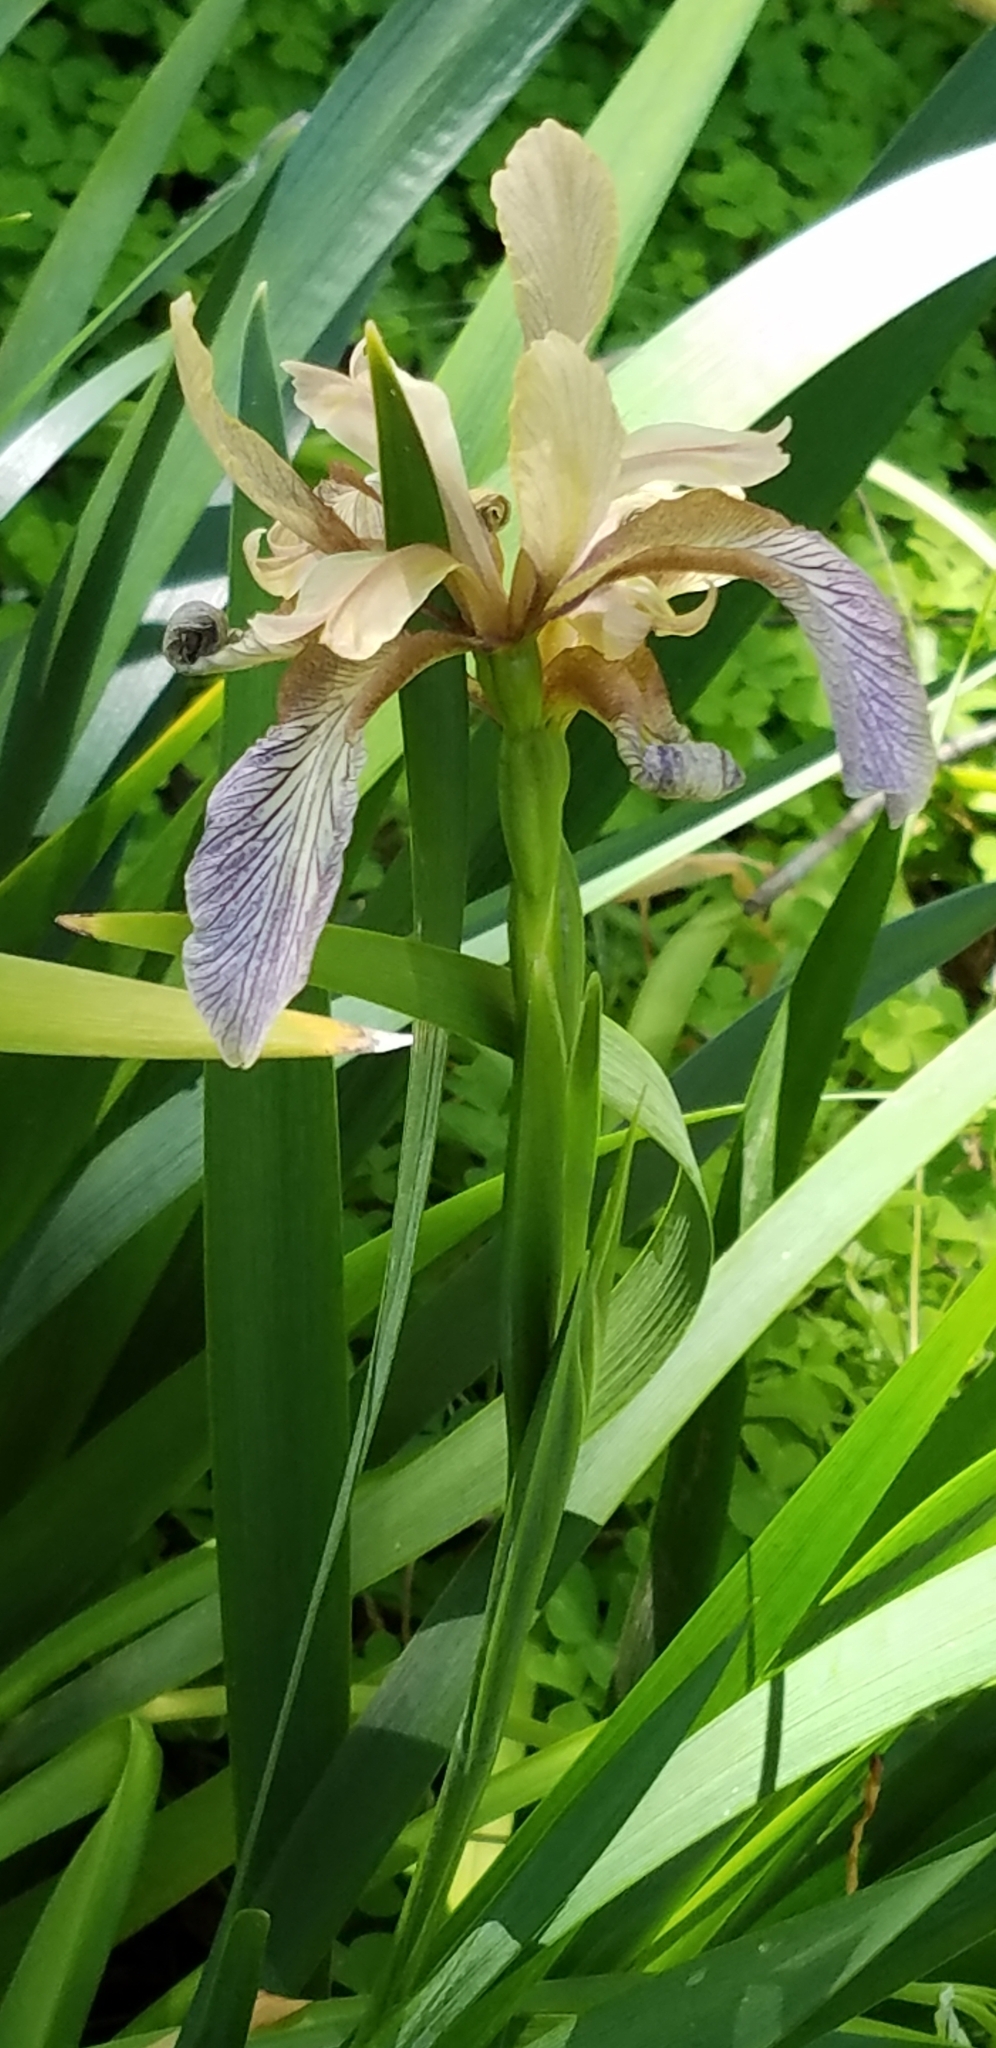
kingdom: Plantae
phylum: Tracheophyta
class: Liliopsida
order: Asparagales
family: Iridaceae
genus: Iris
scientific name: Iris foetidissima
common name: Stinking iris
